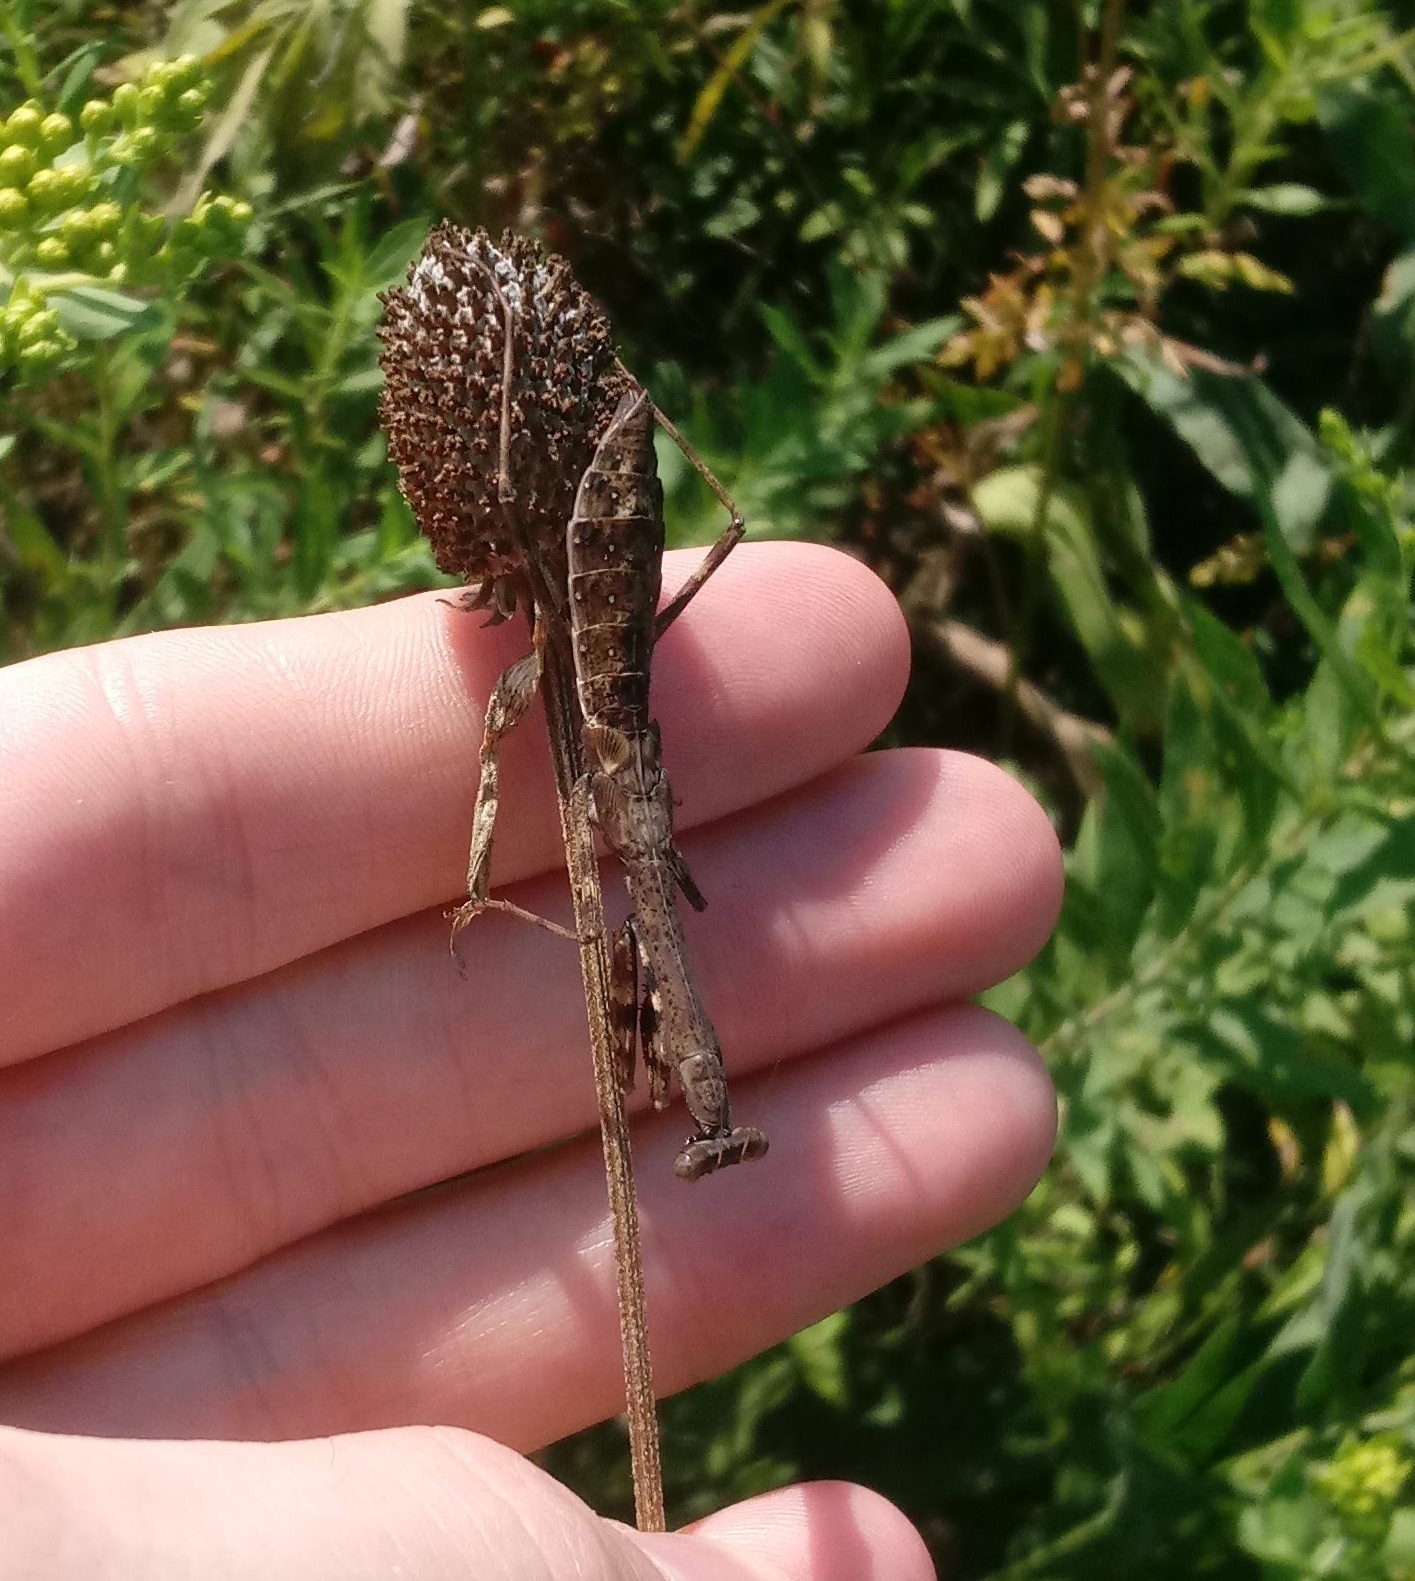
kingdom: Animalia
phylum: Arthropoda
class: Insecta
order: Mantodea
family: Mantidae
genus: Stagmomantis
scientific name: Stagmomantis carolina
